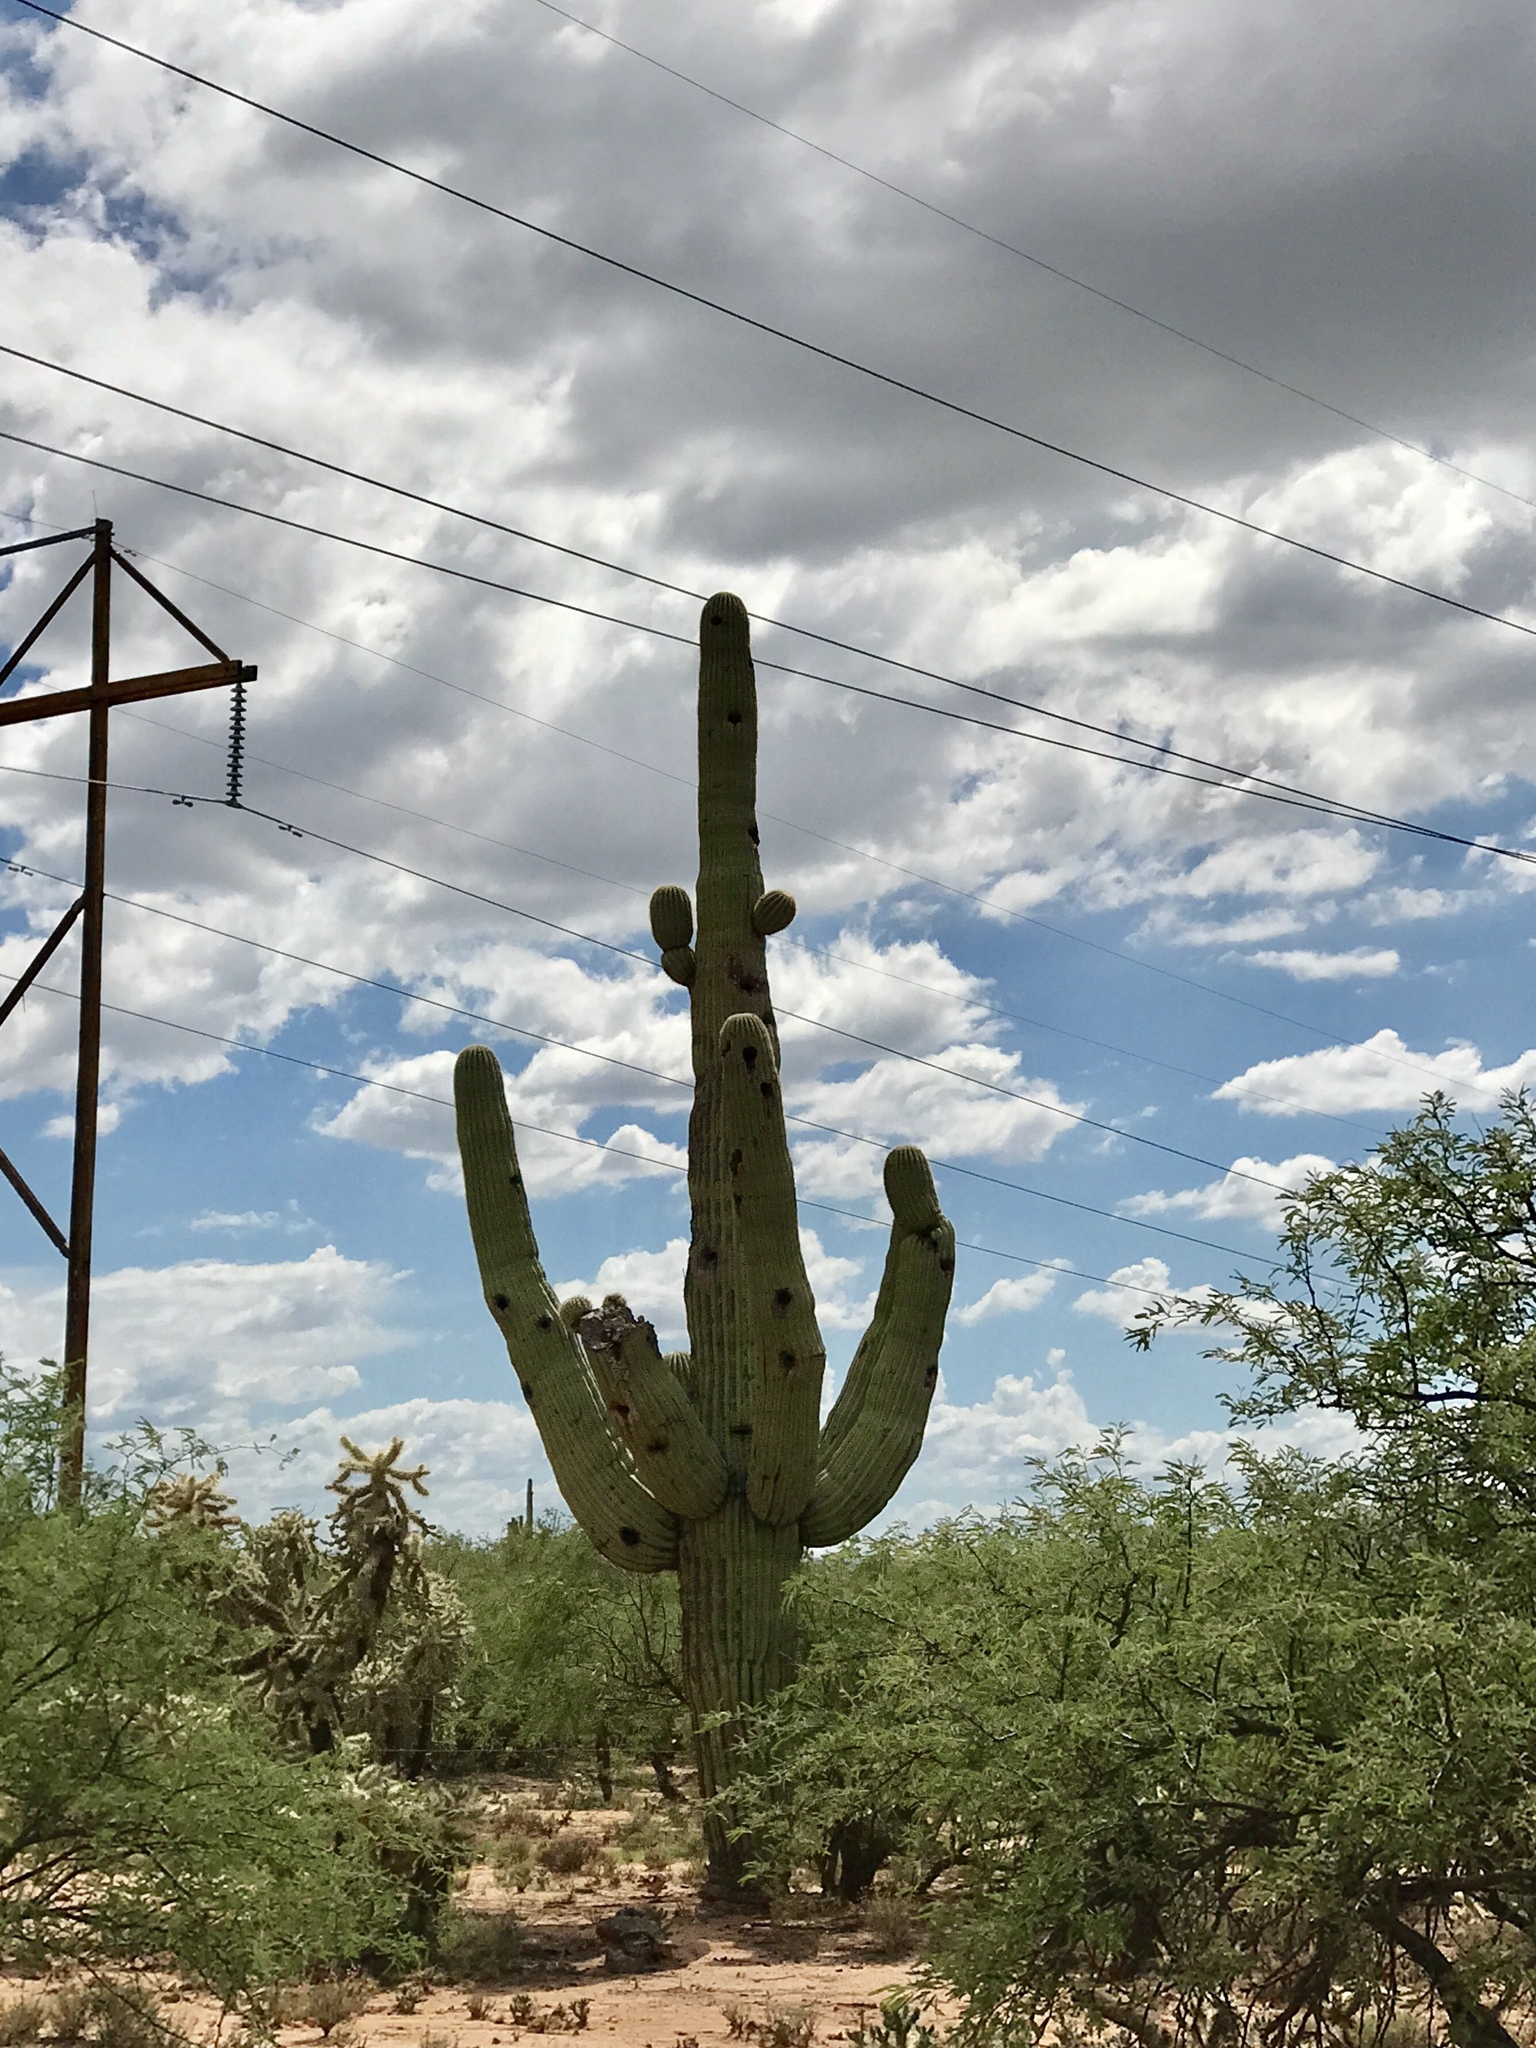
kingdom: Plantae
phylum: Tracheophyta
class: Magnoliopsida
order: Caryophyllales
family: Cactaceae
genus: Carnegiea
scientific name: Carnegiea gigantea
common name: Saguaro
